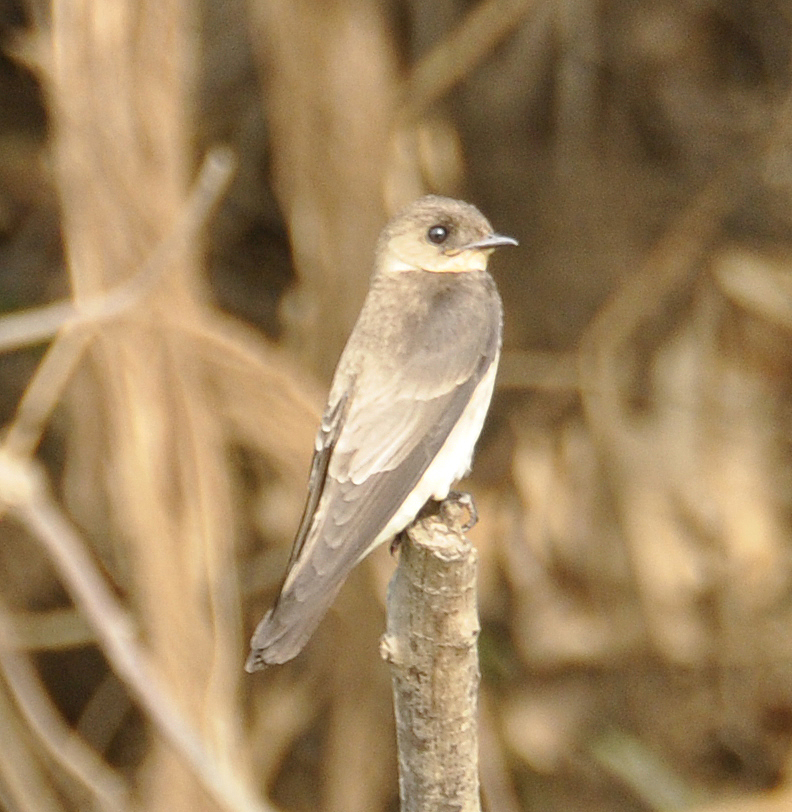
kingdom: Animalia
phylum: Chordata
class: Aves
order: Passeriformes
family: Hirundinidae
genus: Stelgidopteryx
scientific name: Stelgidopteryx ruficollis
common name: Southern rough-winged swallow
